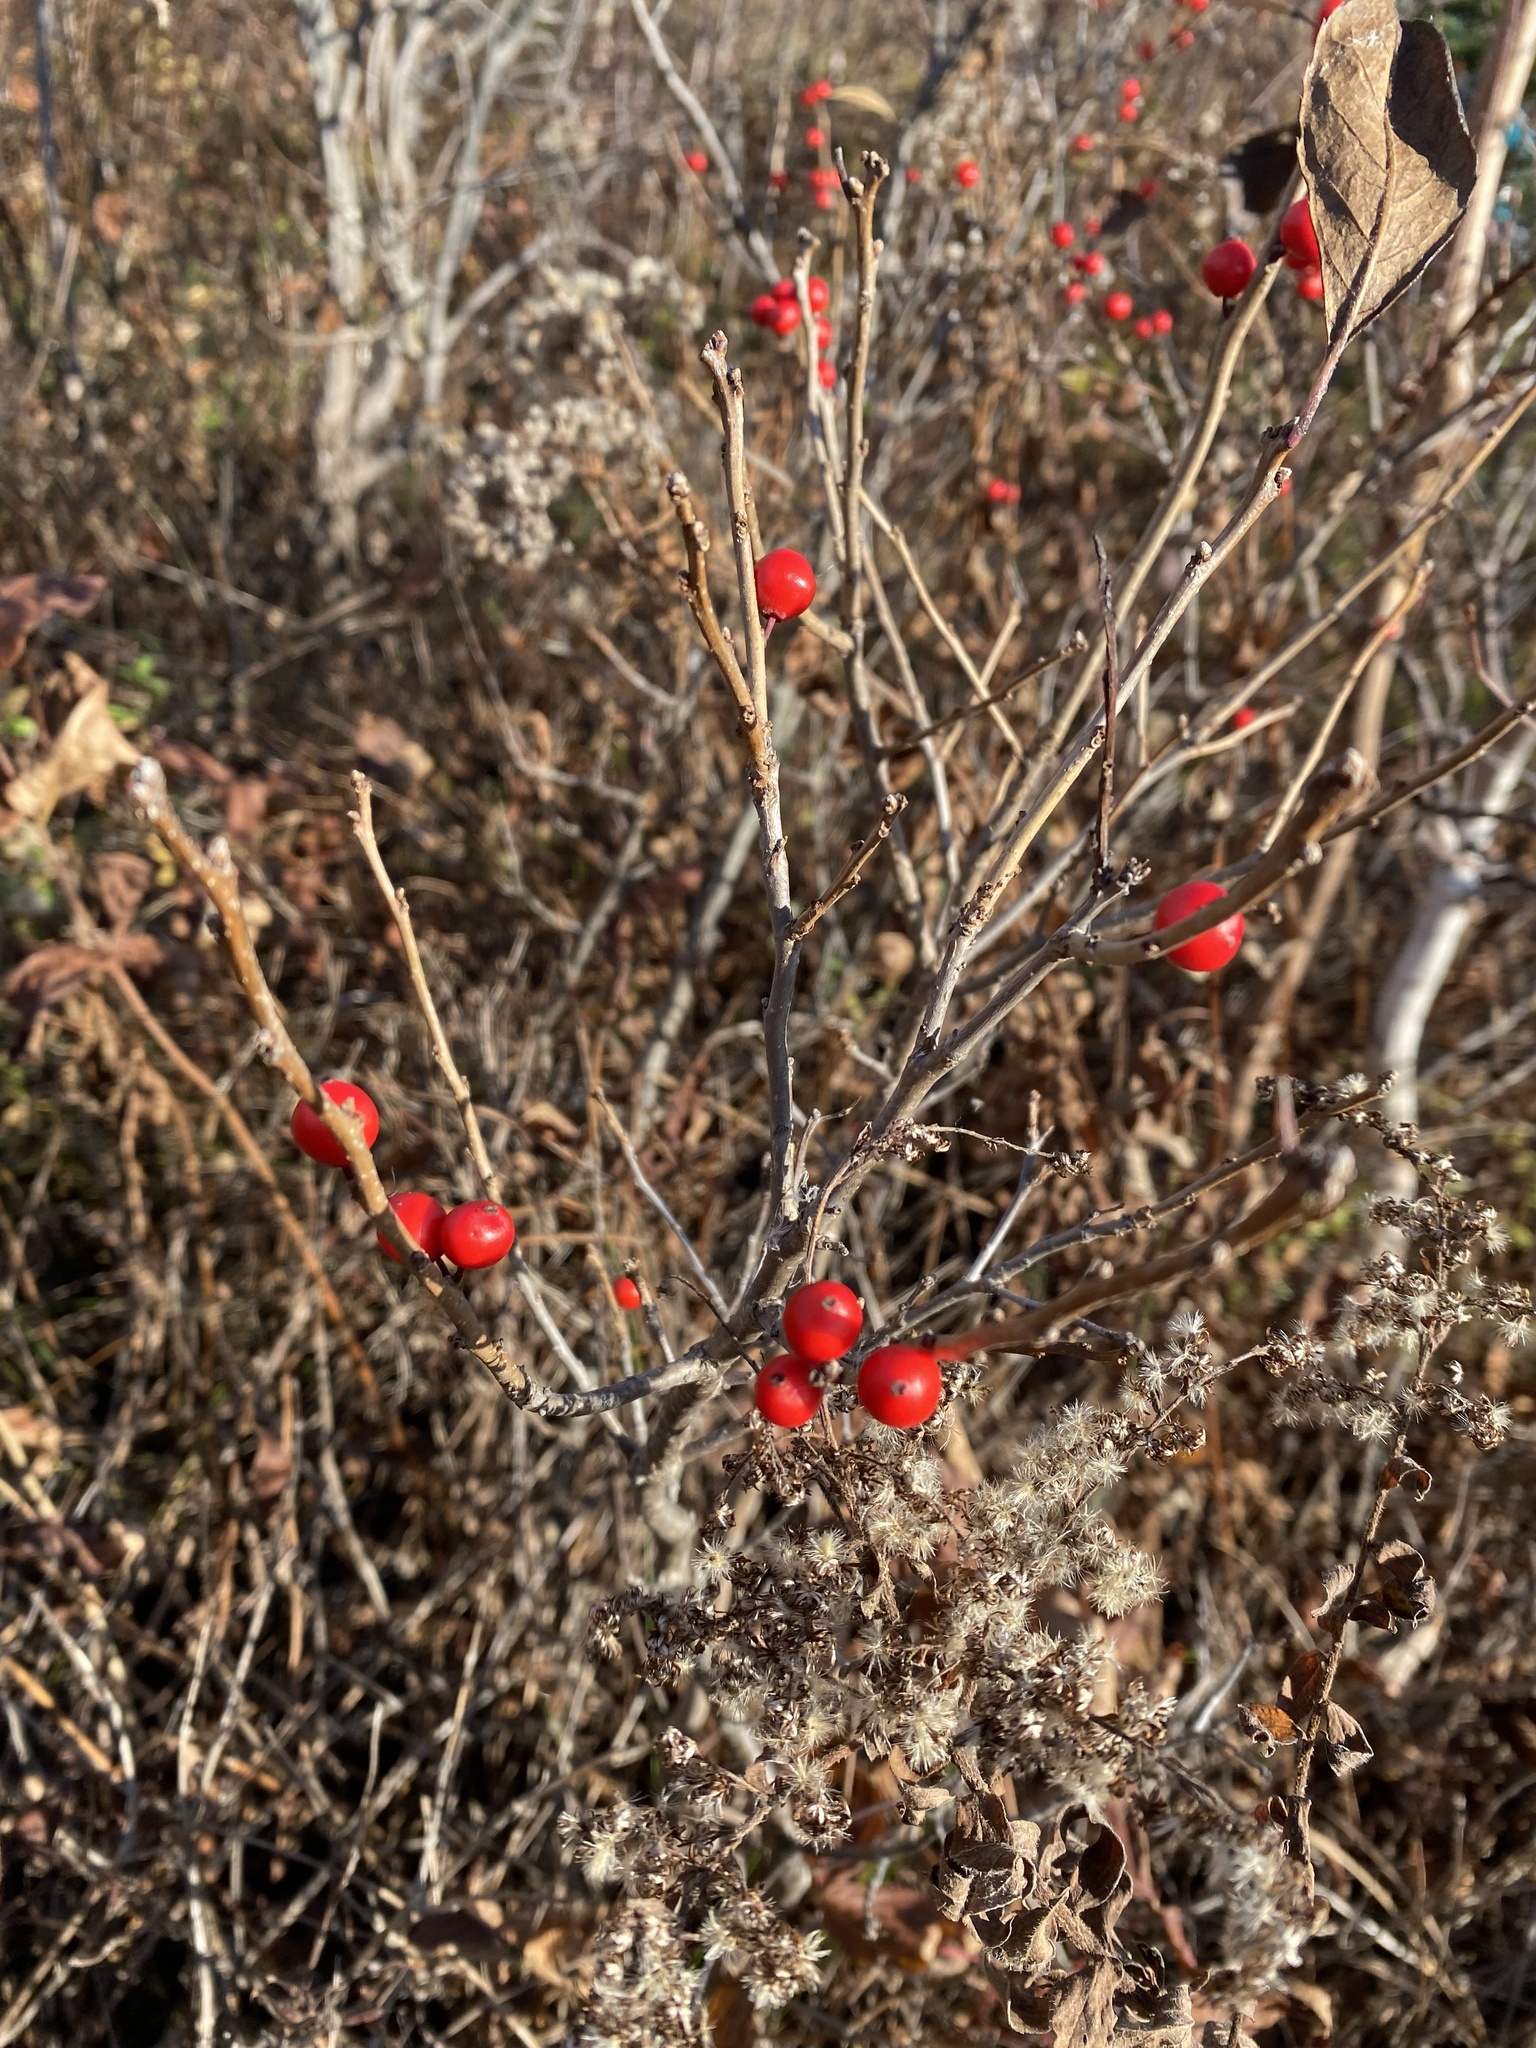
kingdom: Plantae
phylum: Tracheophyta
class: Magnoliopsida
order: Aquifoliales
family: Aquifoliaceae
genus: Ilex
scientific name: Ilex verticillata
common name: Virginia winterberry
